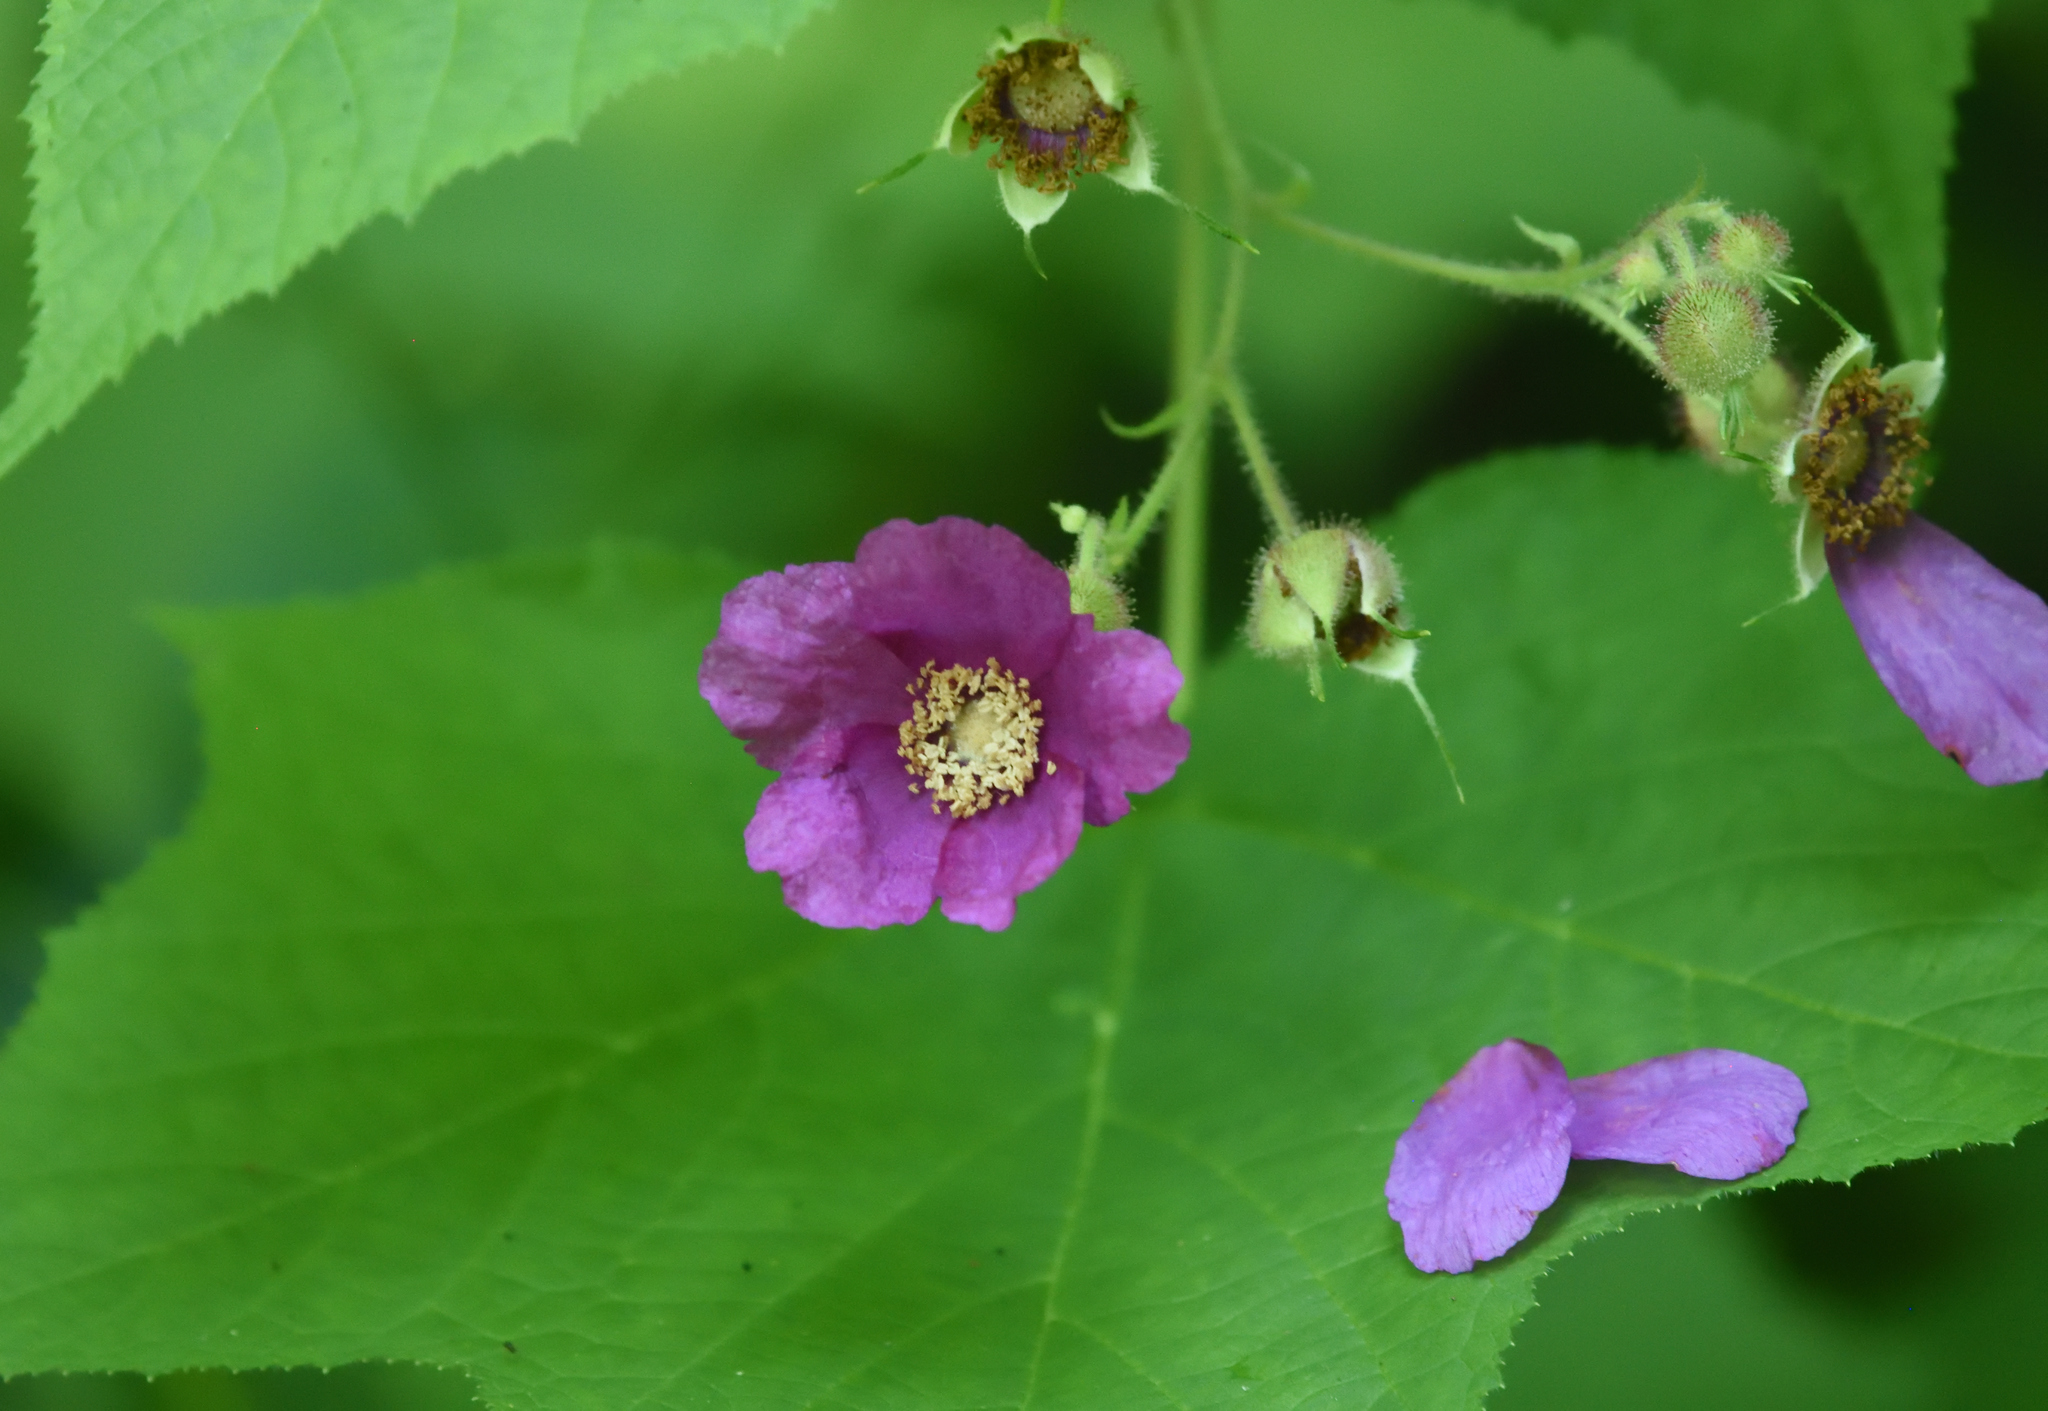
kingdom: Plantae
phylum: Tracheophyta
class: Magnoliopsida
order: Rosales
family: Rosaceae
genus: Rubus
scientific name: Rubus odoratus
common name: Purple-flowered raspberry
